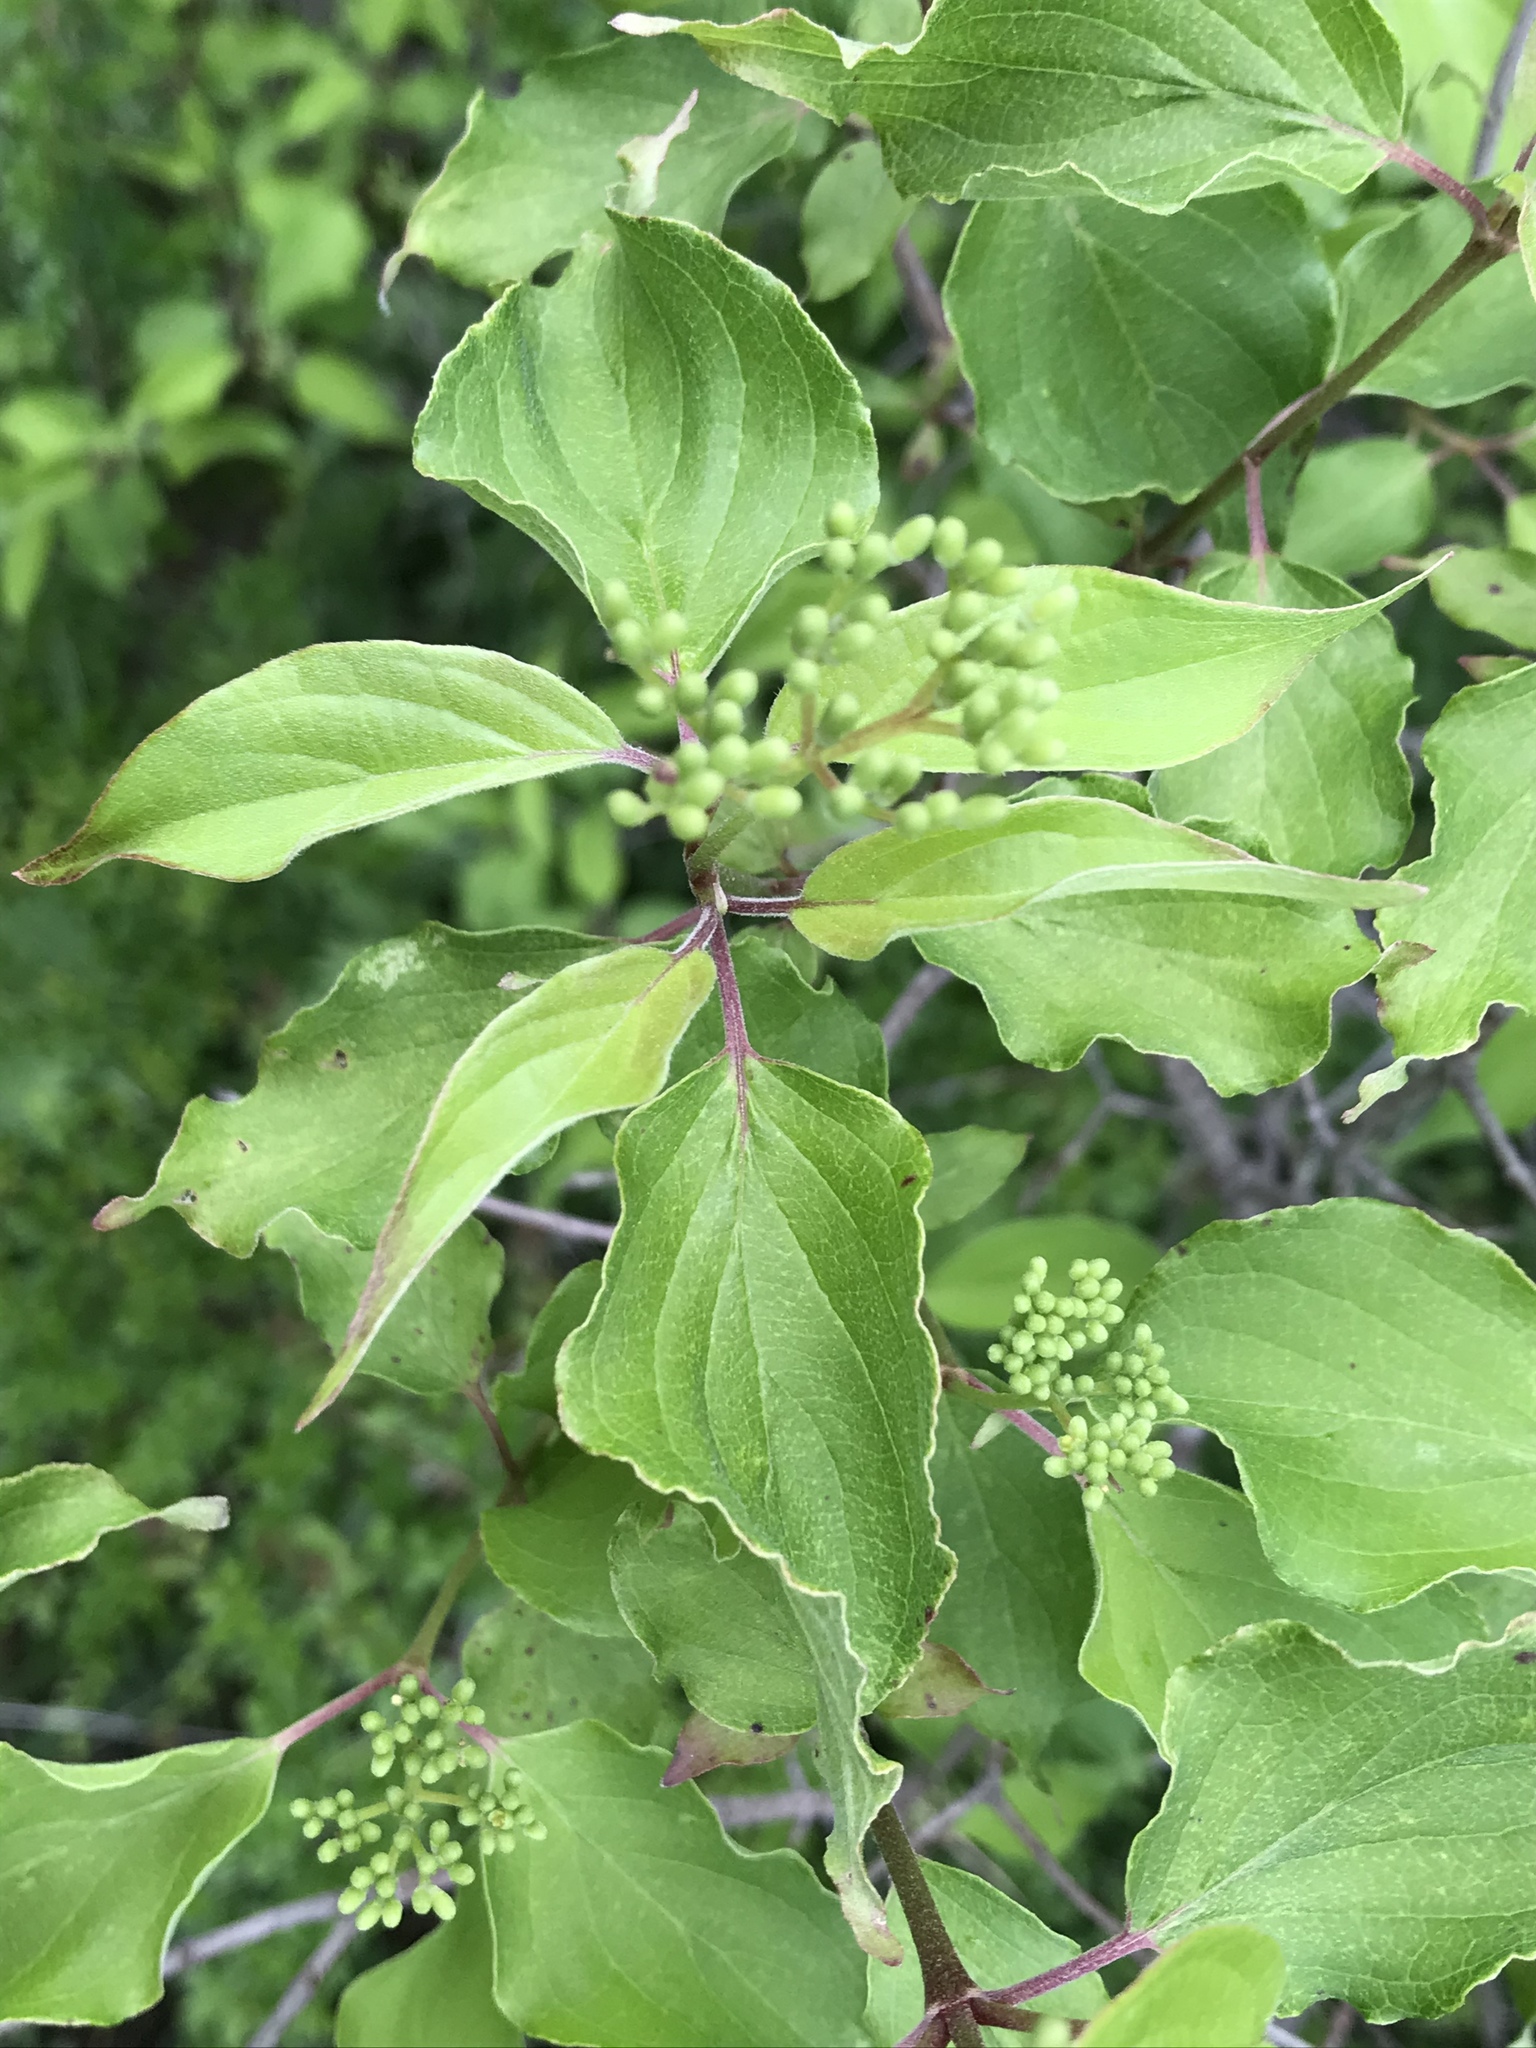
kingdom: Plantae
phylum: Tracheophyta
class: Magnoliopsida
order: Cornales
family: Cornaceae
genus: Cornus
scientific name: Cornus drummondii
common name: Rough-leaf dogwood
